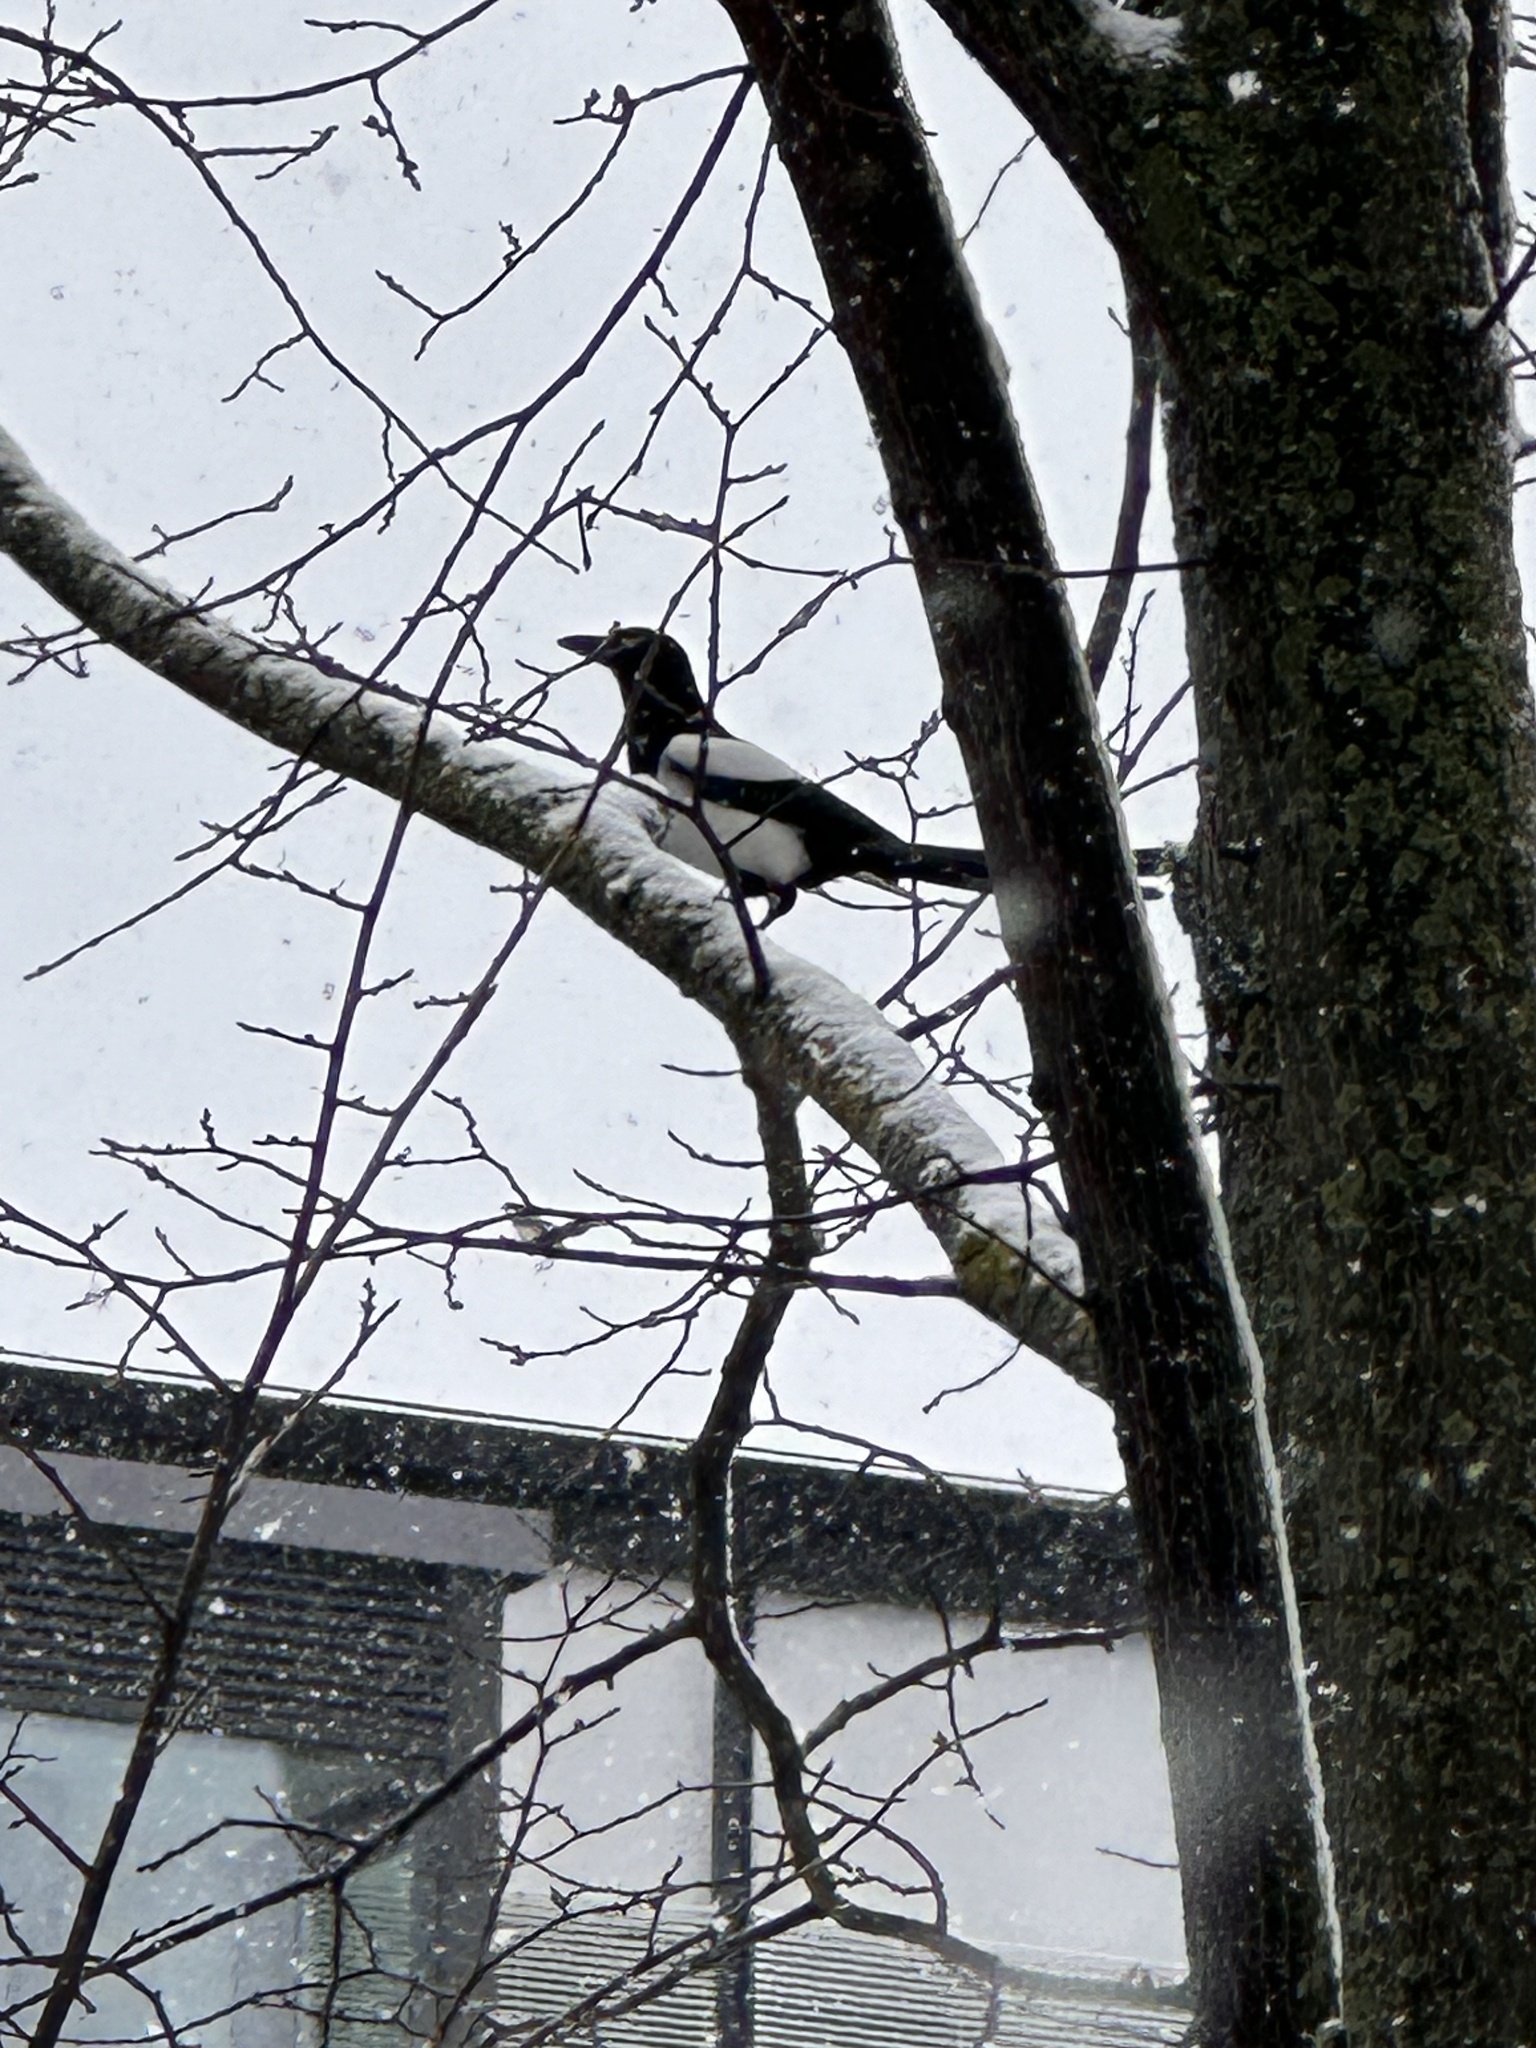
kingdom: Animalia
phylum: Chordata
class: Aves
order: Passeriformes
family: Corvidae
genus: Pica
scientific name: Pica pica
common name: Eurasian magpie
